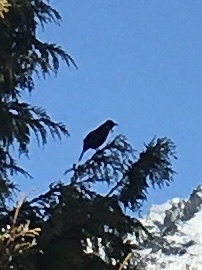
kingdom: Animalia
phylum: Chordata
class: Aves
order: Passeriformes
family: Meliphagidae
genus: Prosthemadera
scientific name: Prosthemadera novaeseelandiae
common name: Tui
